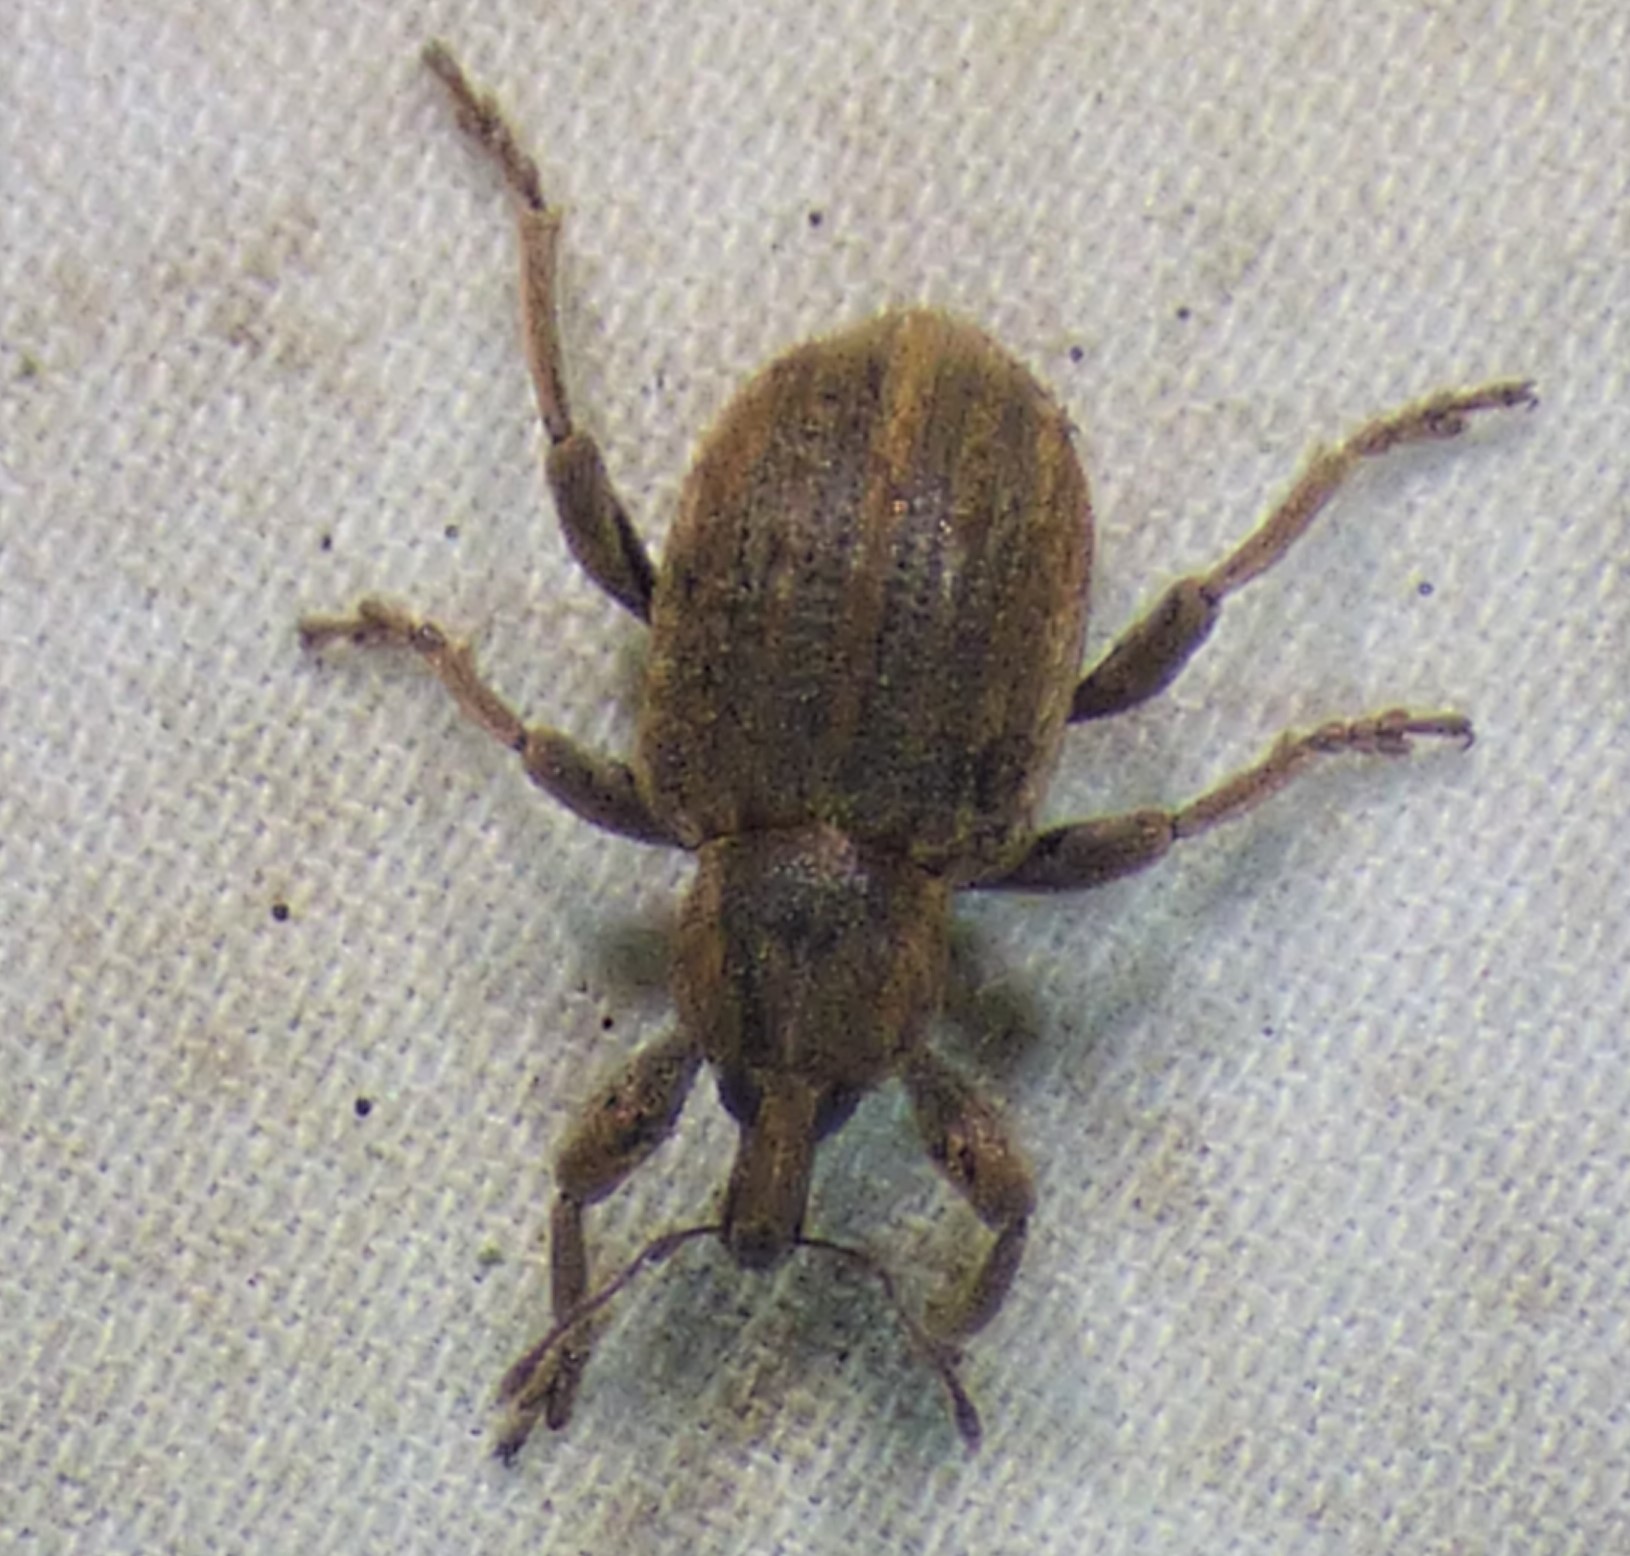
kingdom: Animalia
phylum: Arthropoda
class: Insecta
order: Coleoptera
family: Curculionidae
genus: Brachypera
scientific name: Brachypera zoilus
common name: Clover leaf weevil
